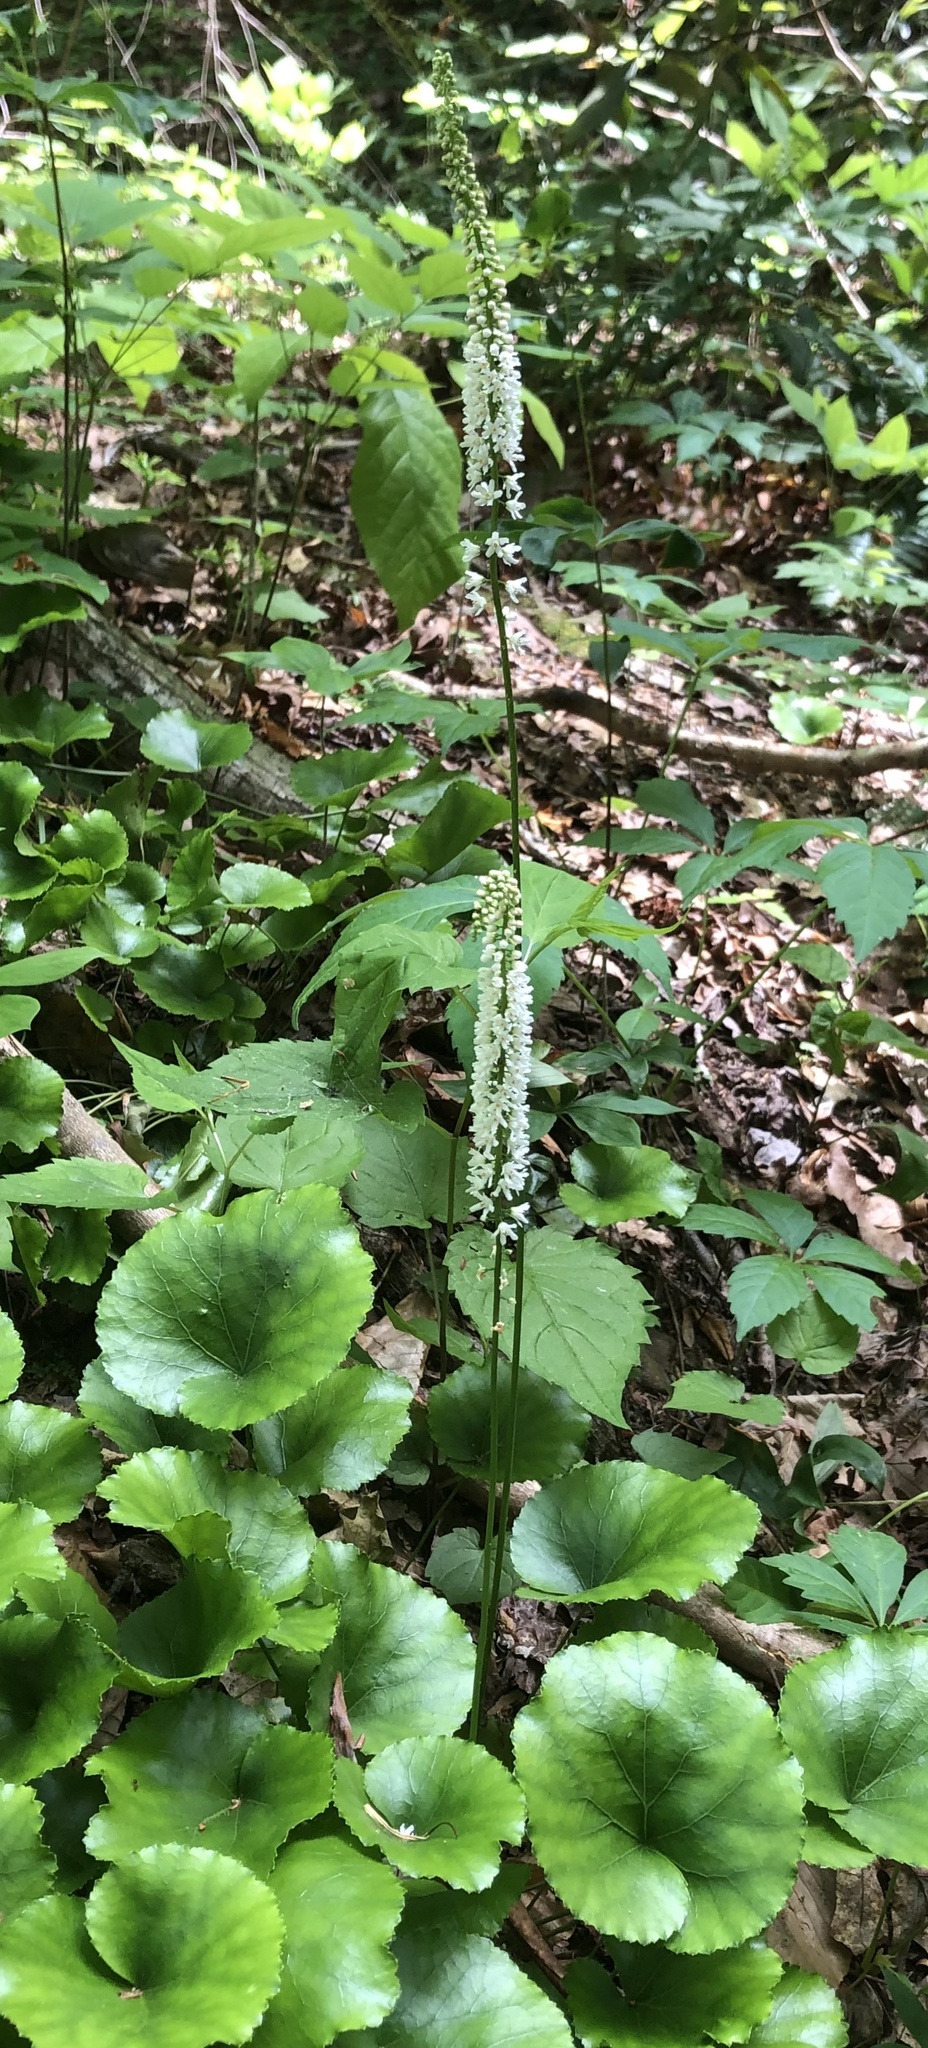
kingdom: Plantae
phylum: Tracheophyta
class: Magnoliopsida
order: Ericales
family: Diapensiaceae
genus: Galax
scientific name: Galax urceolata
